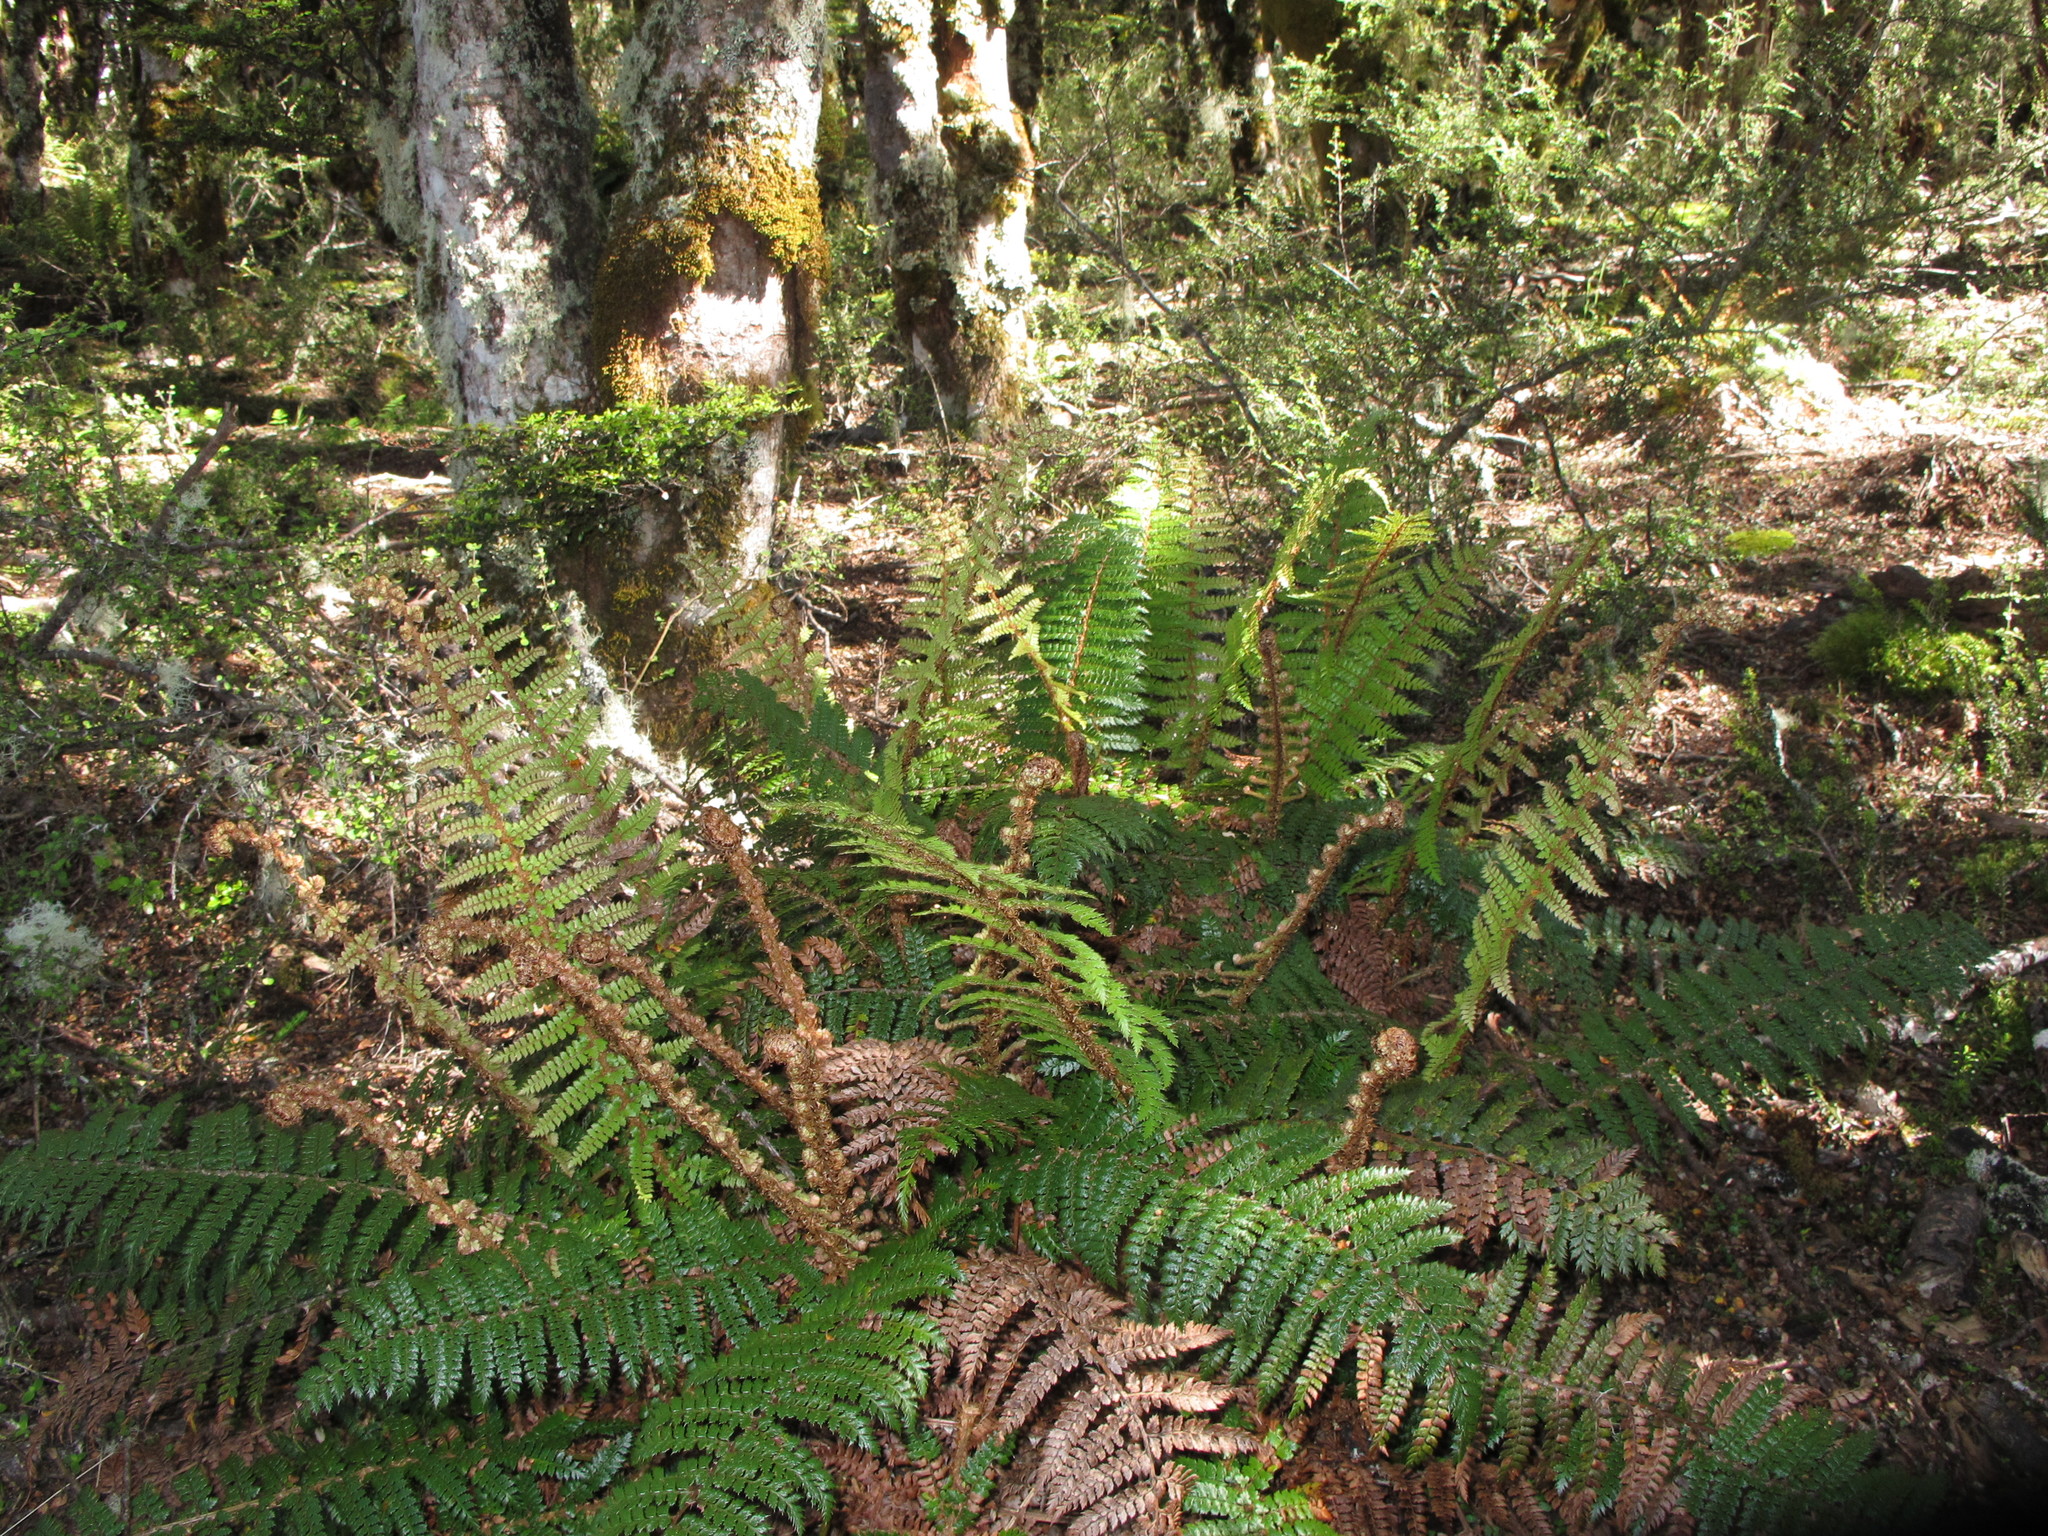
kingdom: Plantae
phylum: Tracheophyta
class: Polypodiopsida
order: Polypodiales
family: Dryopteridaceae
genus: Polystichum
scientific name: Polystichum vestitum
